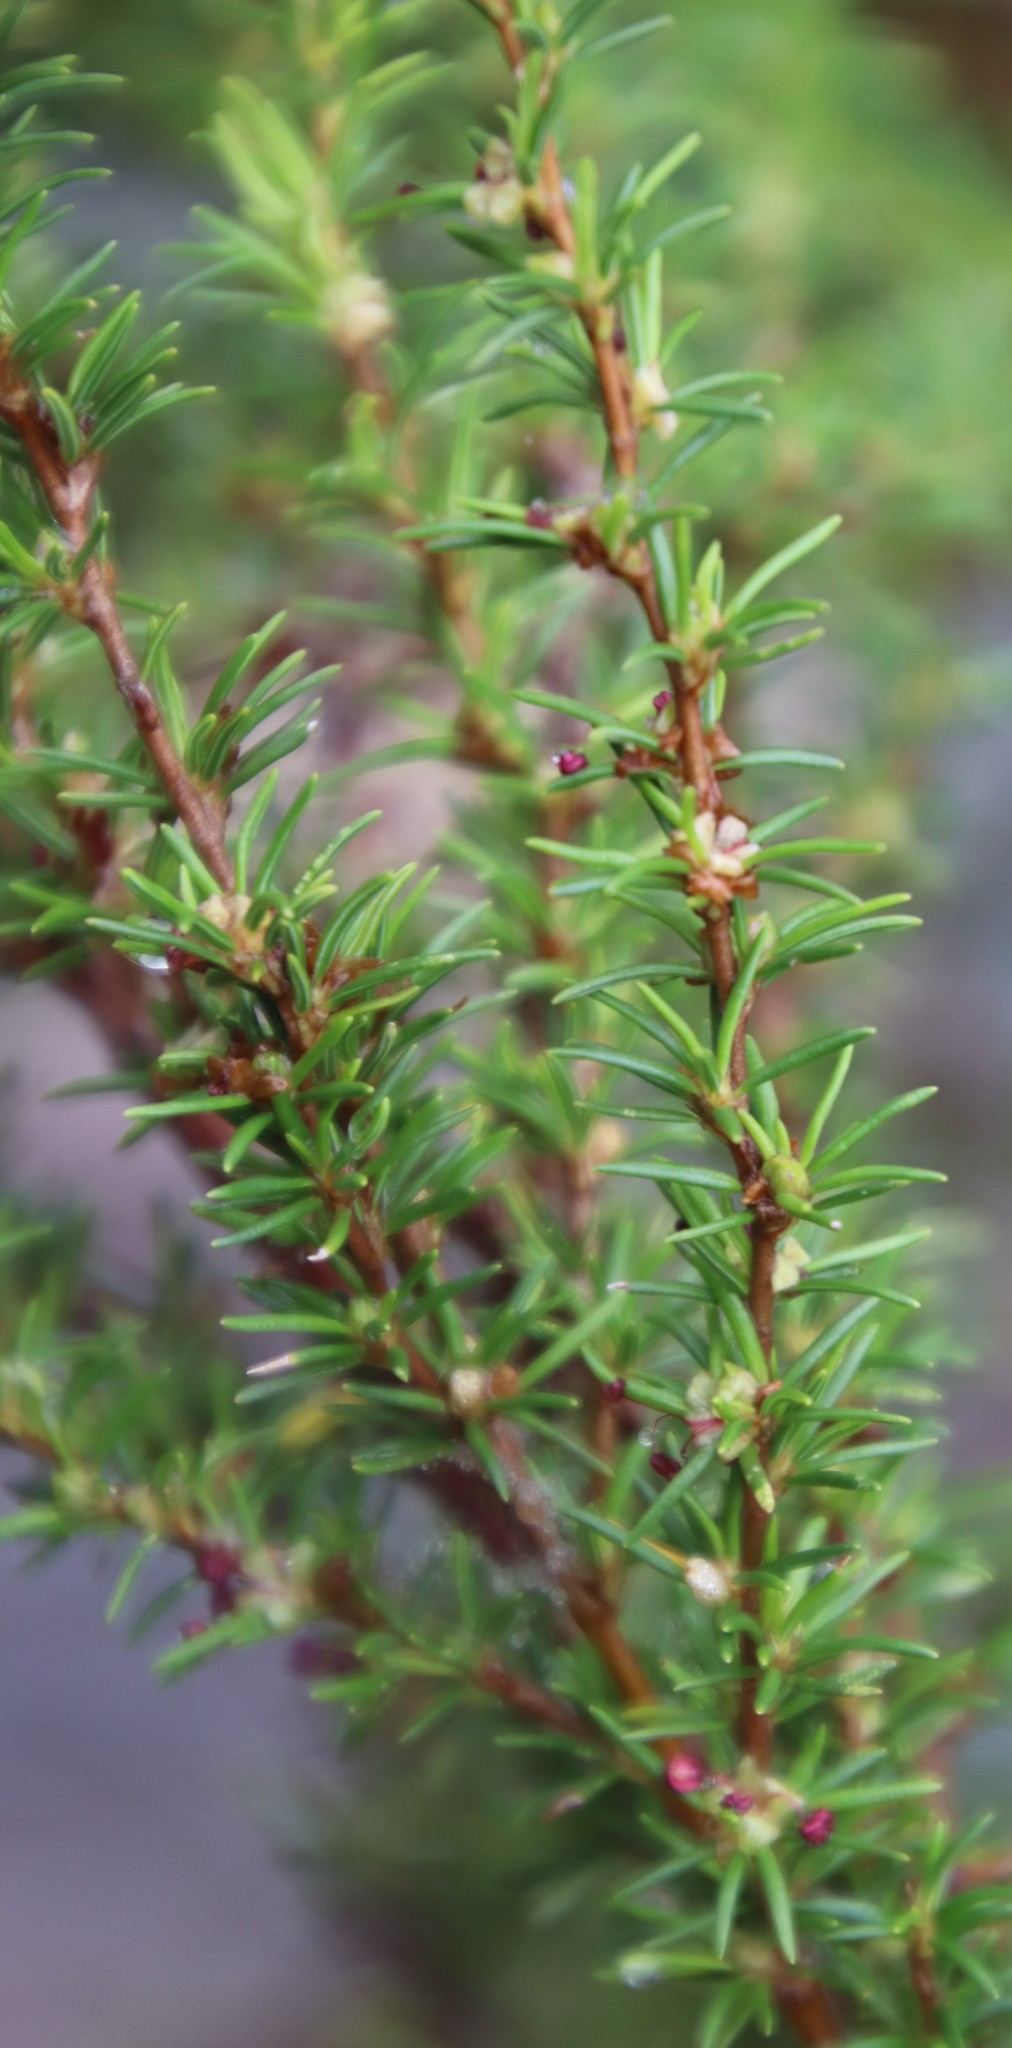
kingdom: Plantae
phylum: Tracheophyta
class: Magnoliopsida
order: Rosales
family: Rosaceae
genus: Cliffortia
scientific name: Cliffortia linearifolia
